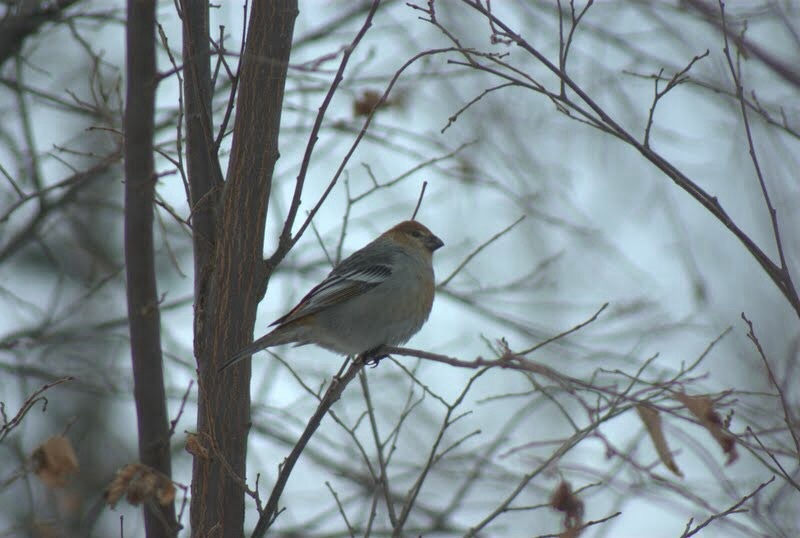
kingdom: Animalia
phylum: Chordata
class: Aves
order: Passeriformes
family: Fringillidae
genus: Pinicola
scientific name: Pinicola enucleator
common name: Pine grosbeak
